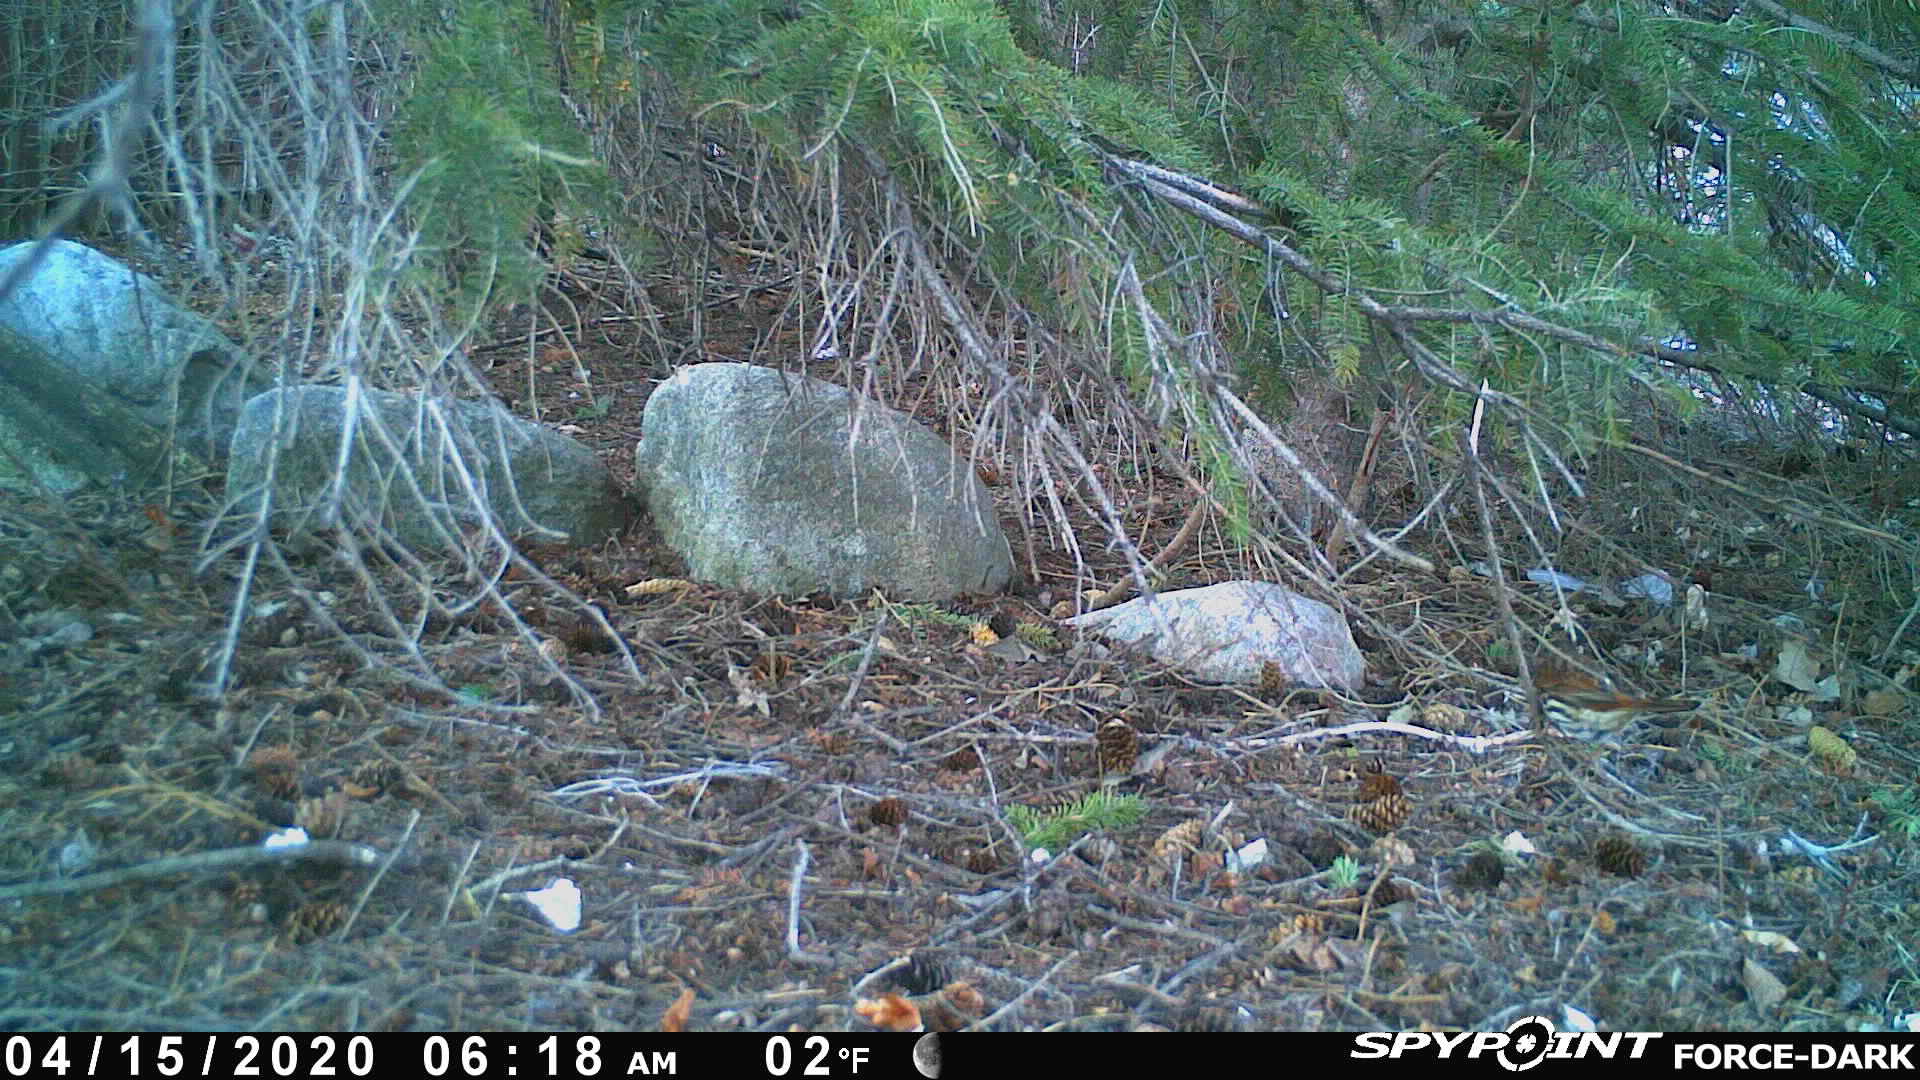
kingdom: Animalia
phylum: Chordata
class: Aves
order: Passeriformes
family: Passerellidae
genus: Passerella
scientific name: Passerella iliaca
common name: Fox sparrow
